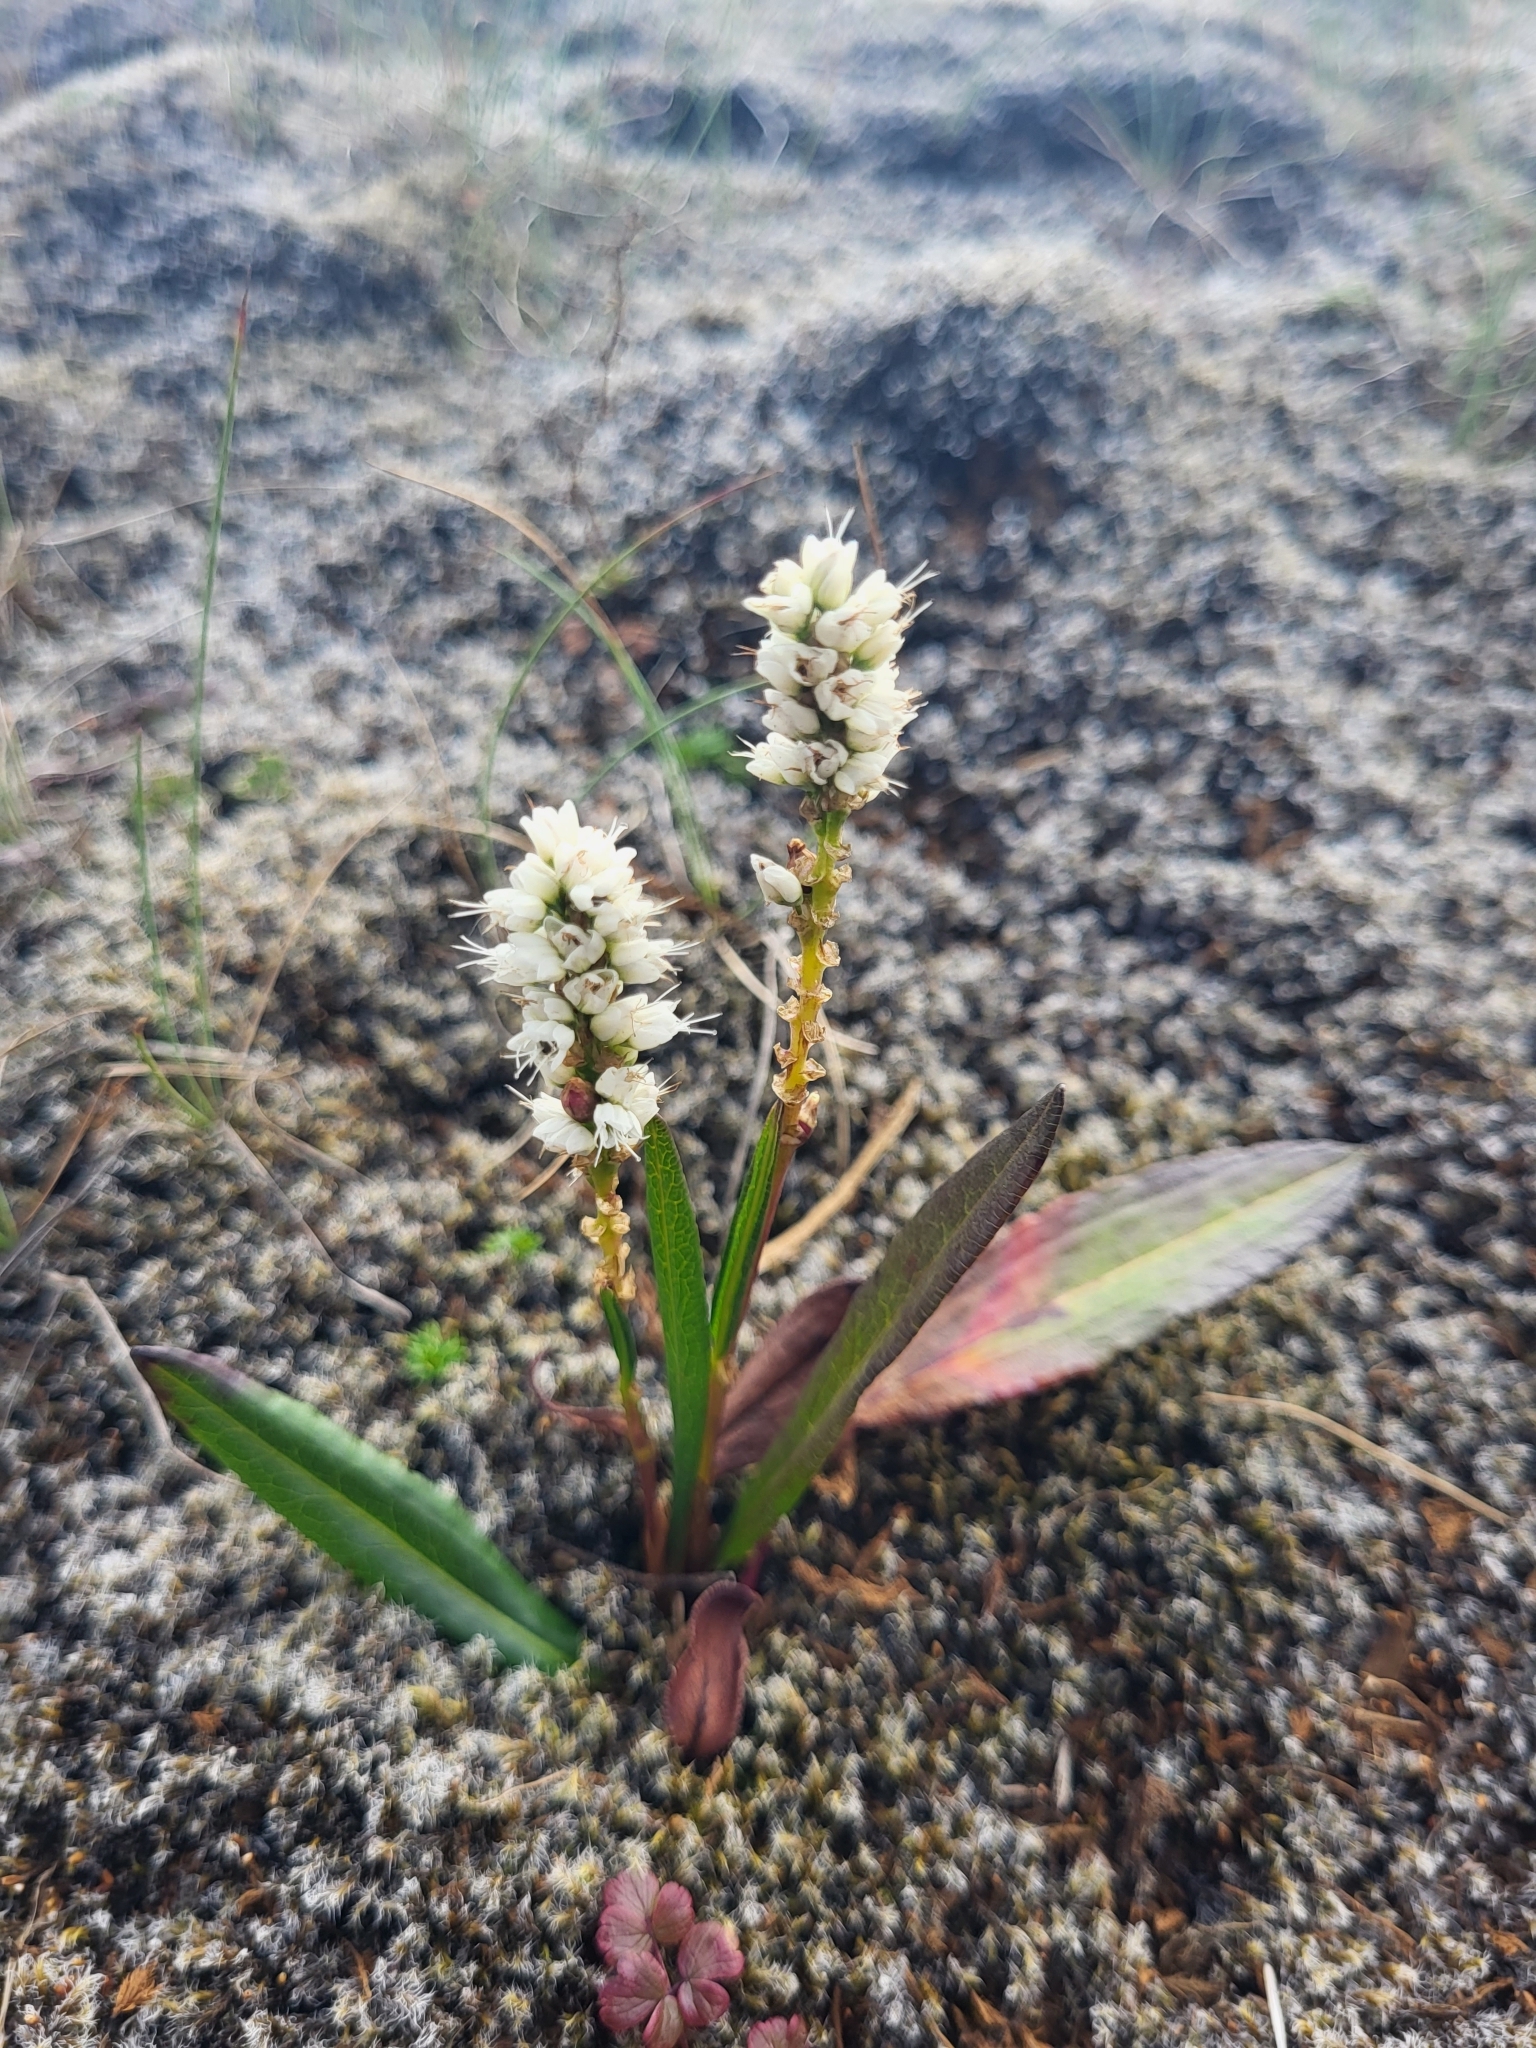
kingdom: Plantae
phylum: Tracheophyta
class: Magnoliopsida
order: Caryophyllales
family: Polygonaceae
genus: Bistorta
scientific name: Bistorta vivipara
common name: Alpine bistort
